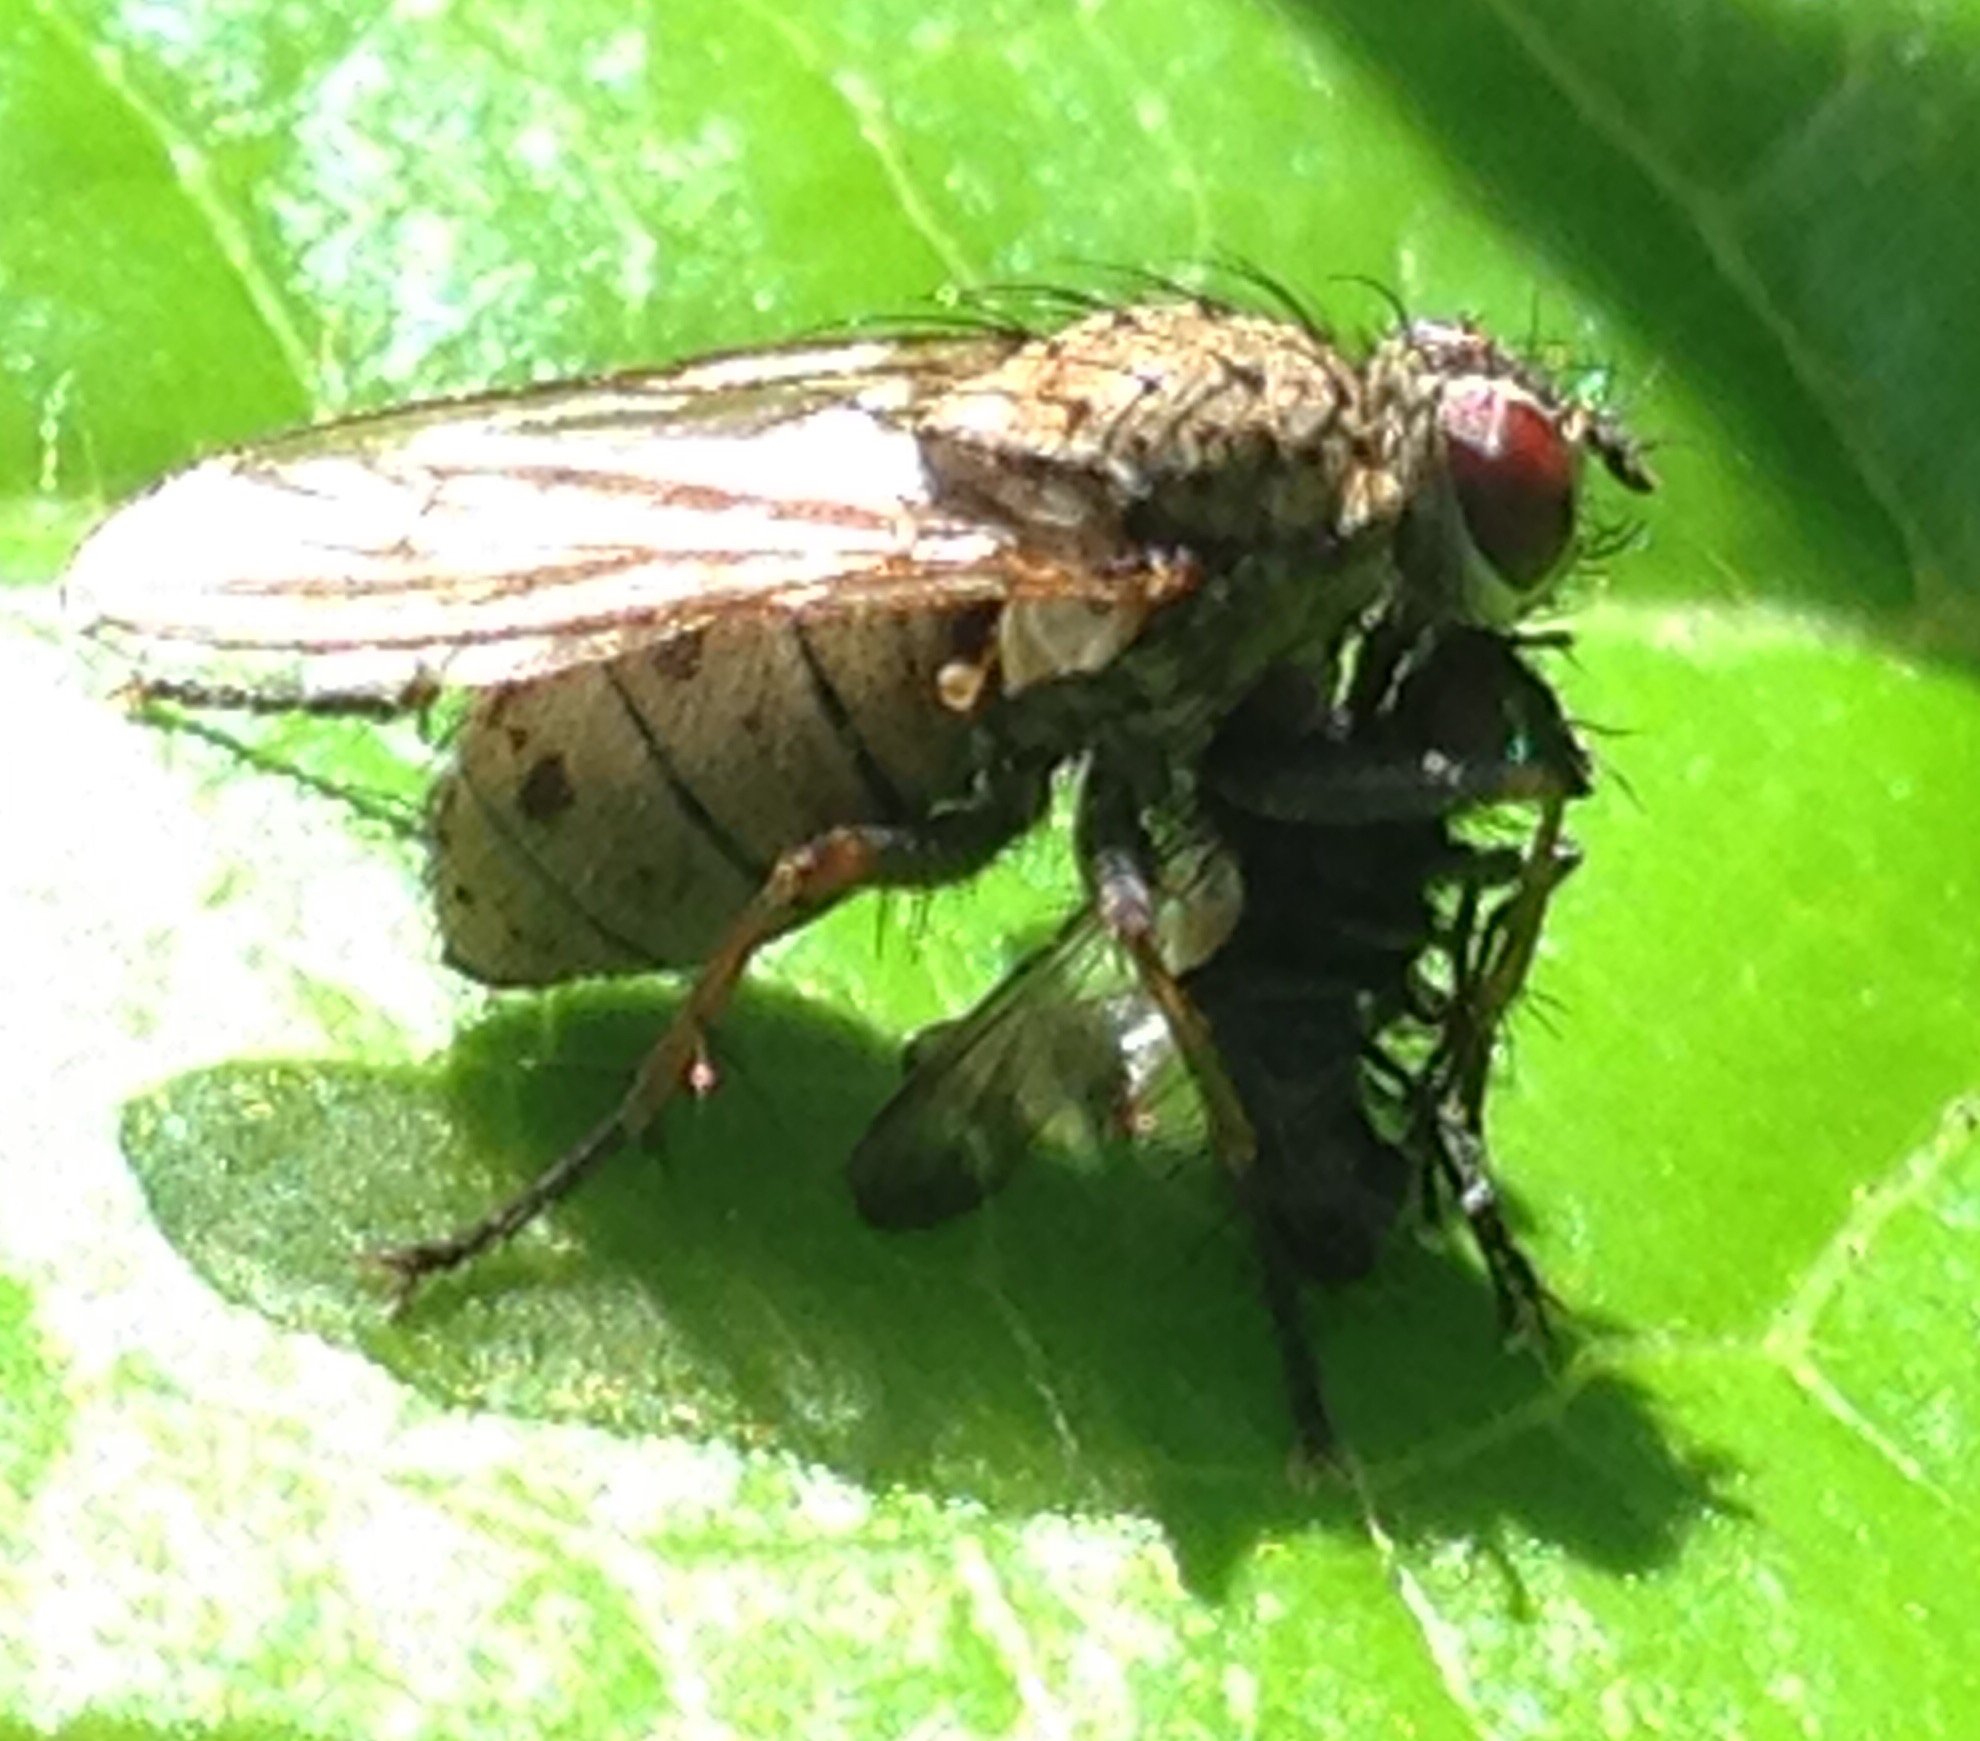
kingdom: Animalia
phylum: Arthropoda
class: Insecta
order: Diptera
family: Muscidae
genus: Coenosia
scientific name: Coenosia tigrina
